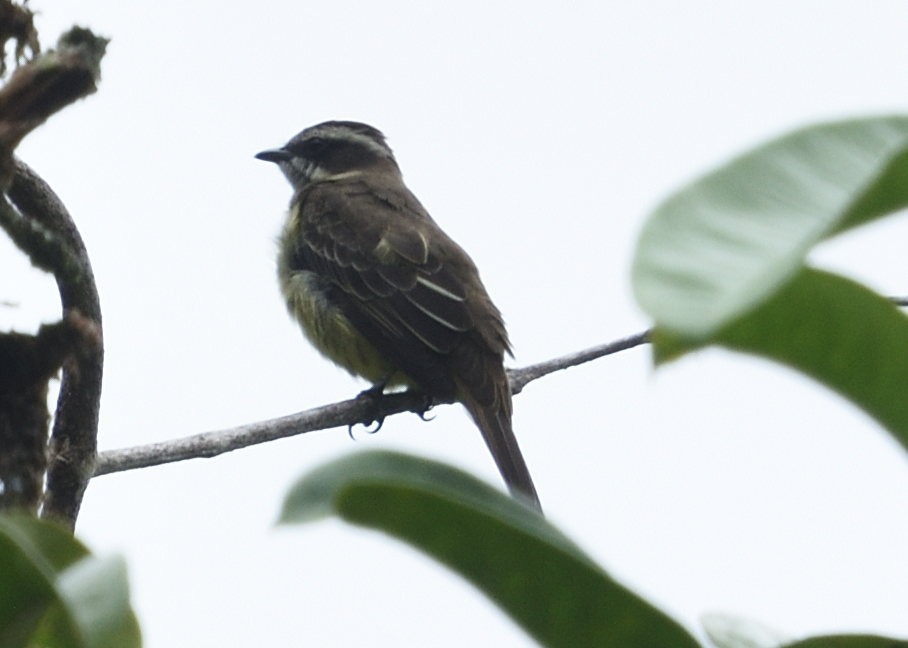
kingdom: Animalia
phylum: Chordata
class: Aves
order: Passeriformes
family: Tyrannidae
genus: Legatus
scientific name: Legatus leucophaius
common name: Piratic flycatcher
